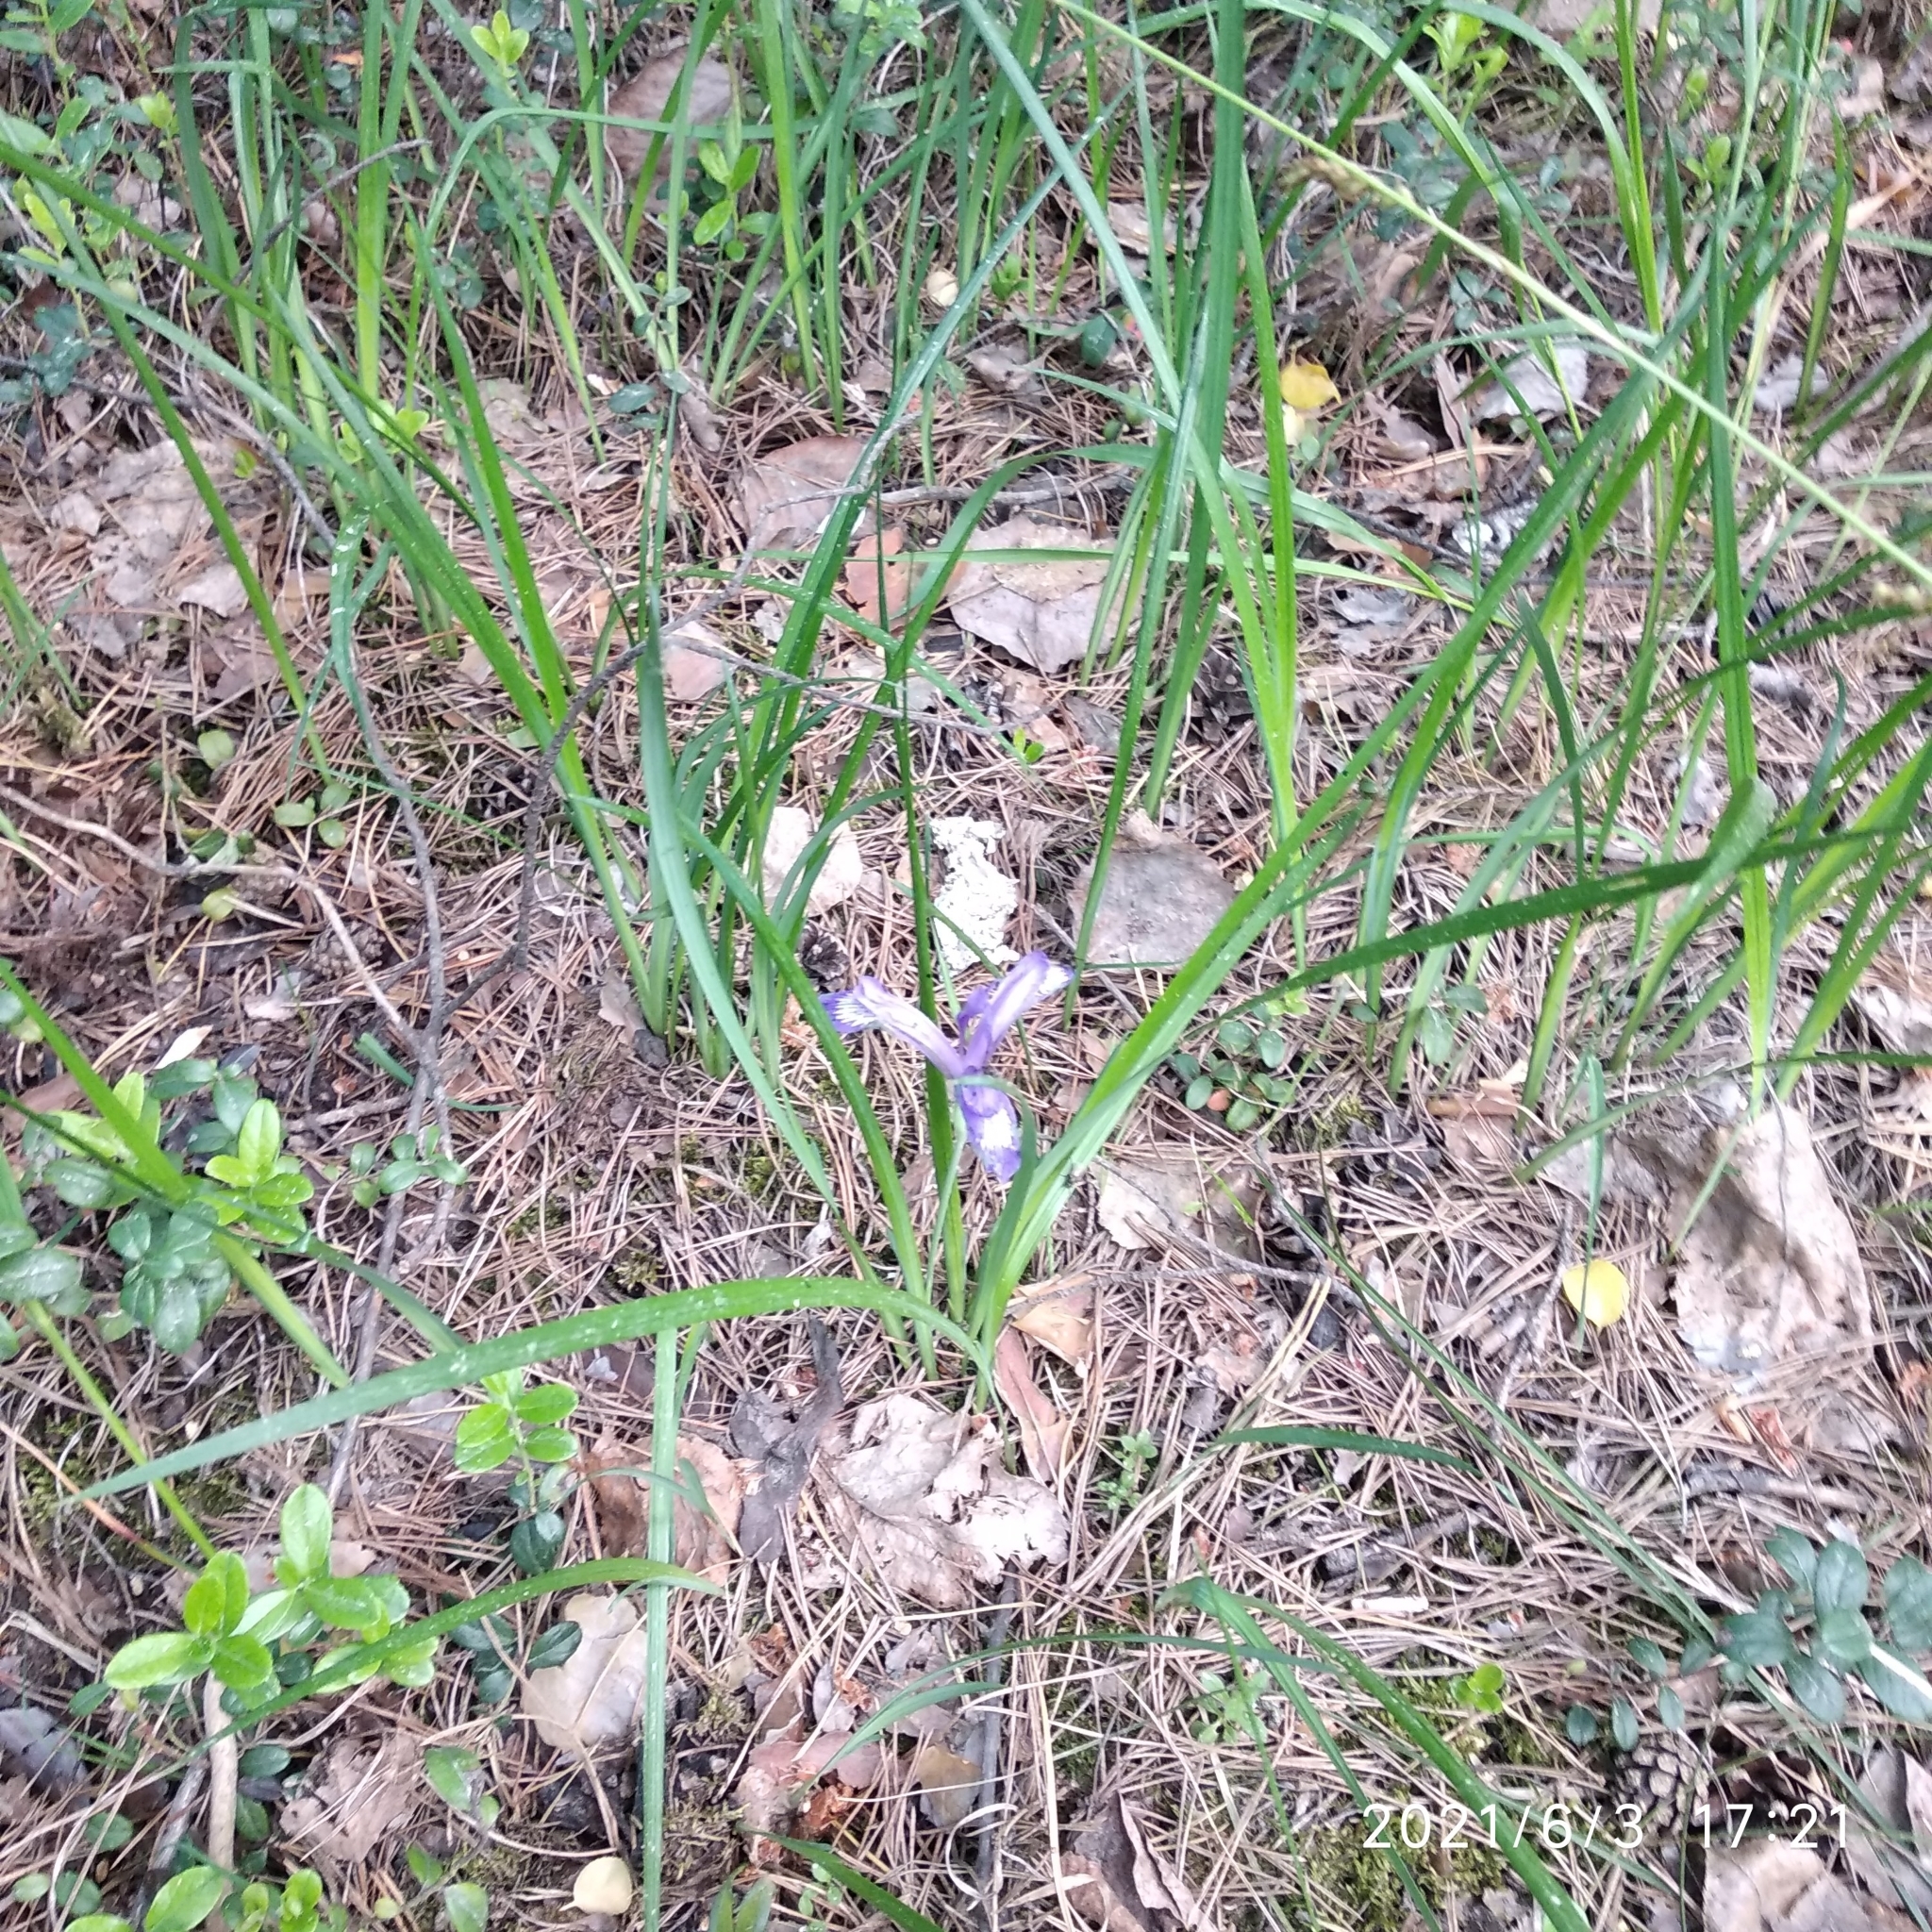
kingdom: Plantae
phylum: Tracheophyta
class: Liliopsida
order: Asparagales
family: Iridaceae
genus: Iris
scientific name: Iris ruthenica
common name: Purple-bract iris
